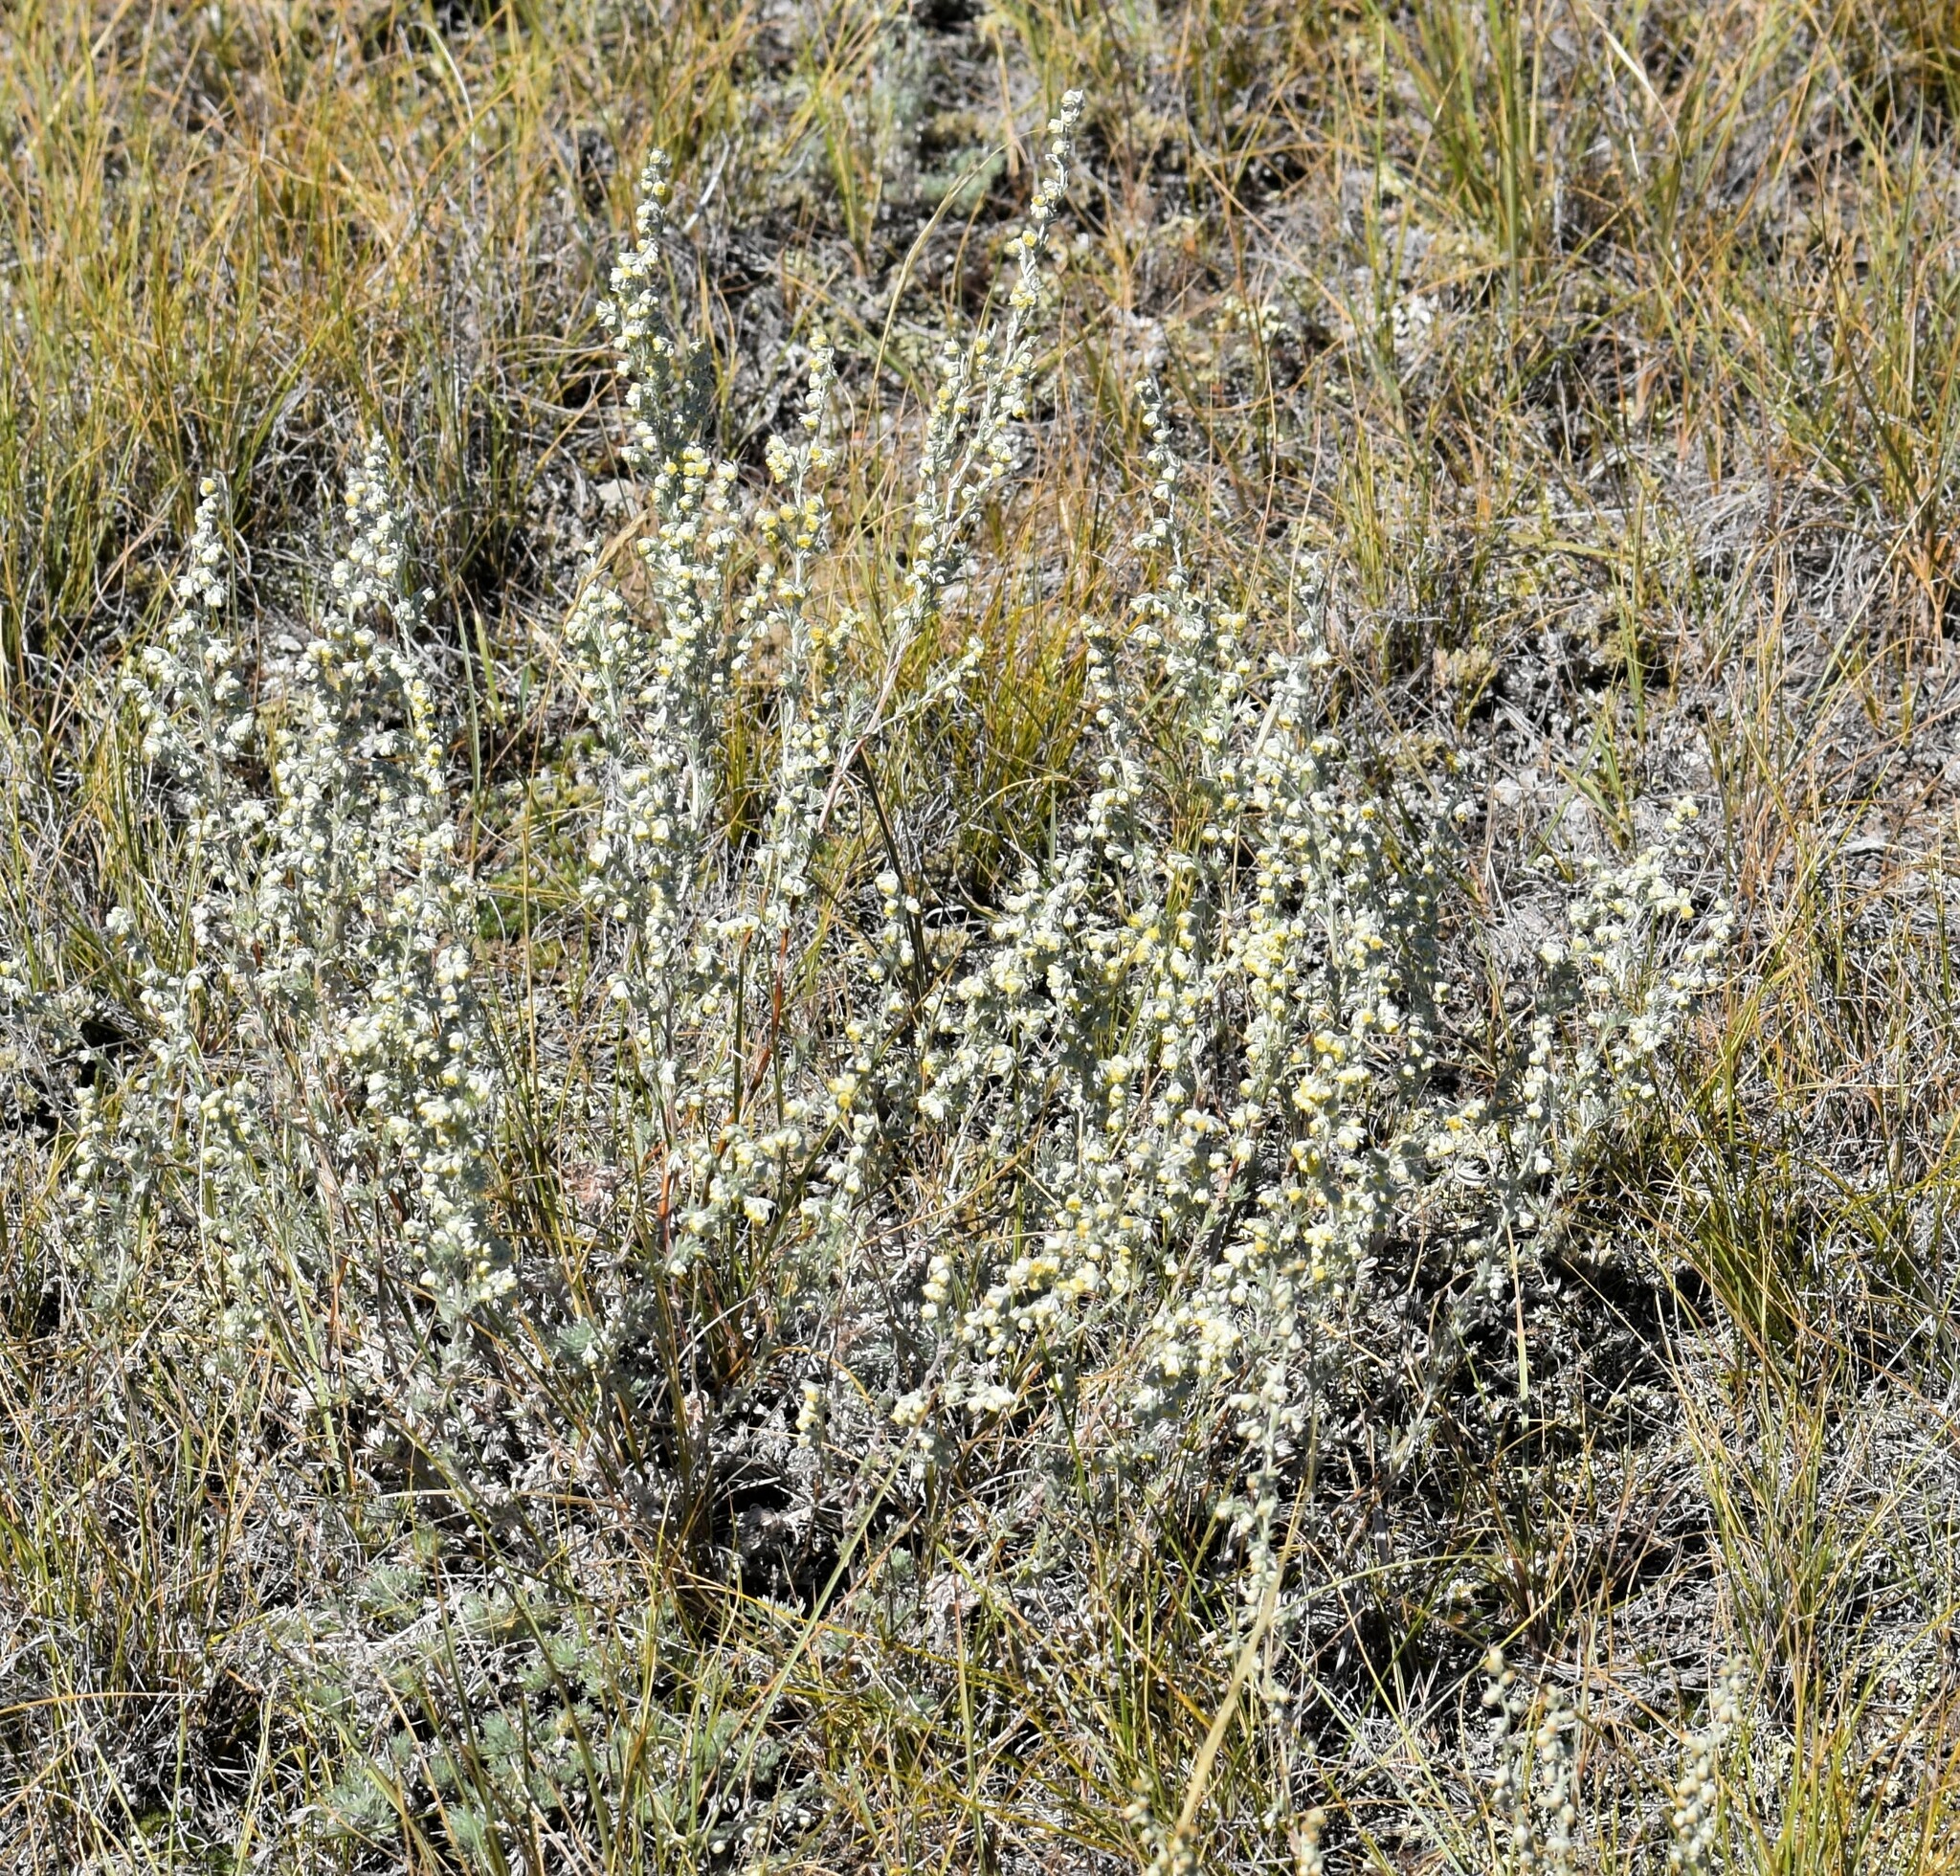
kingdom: Plantae
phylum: Tracheophyta
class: Magnoliopsida
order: Asterales
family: Asteraceae
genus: Artemisia
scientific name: Artemisia frigida
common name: Prairie sagewort
